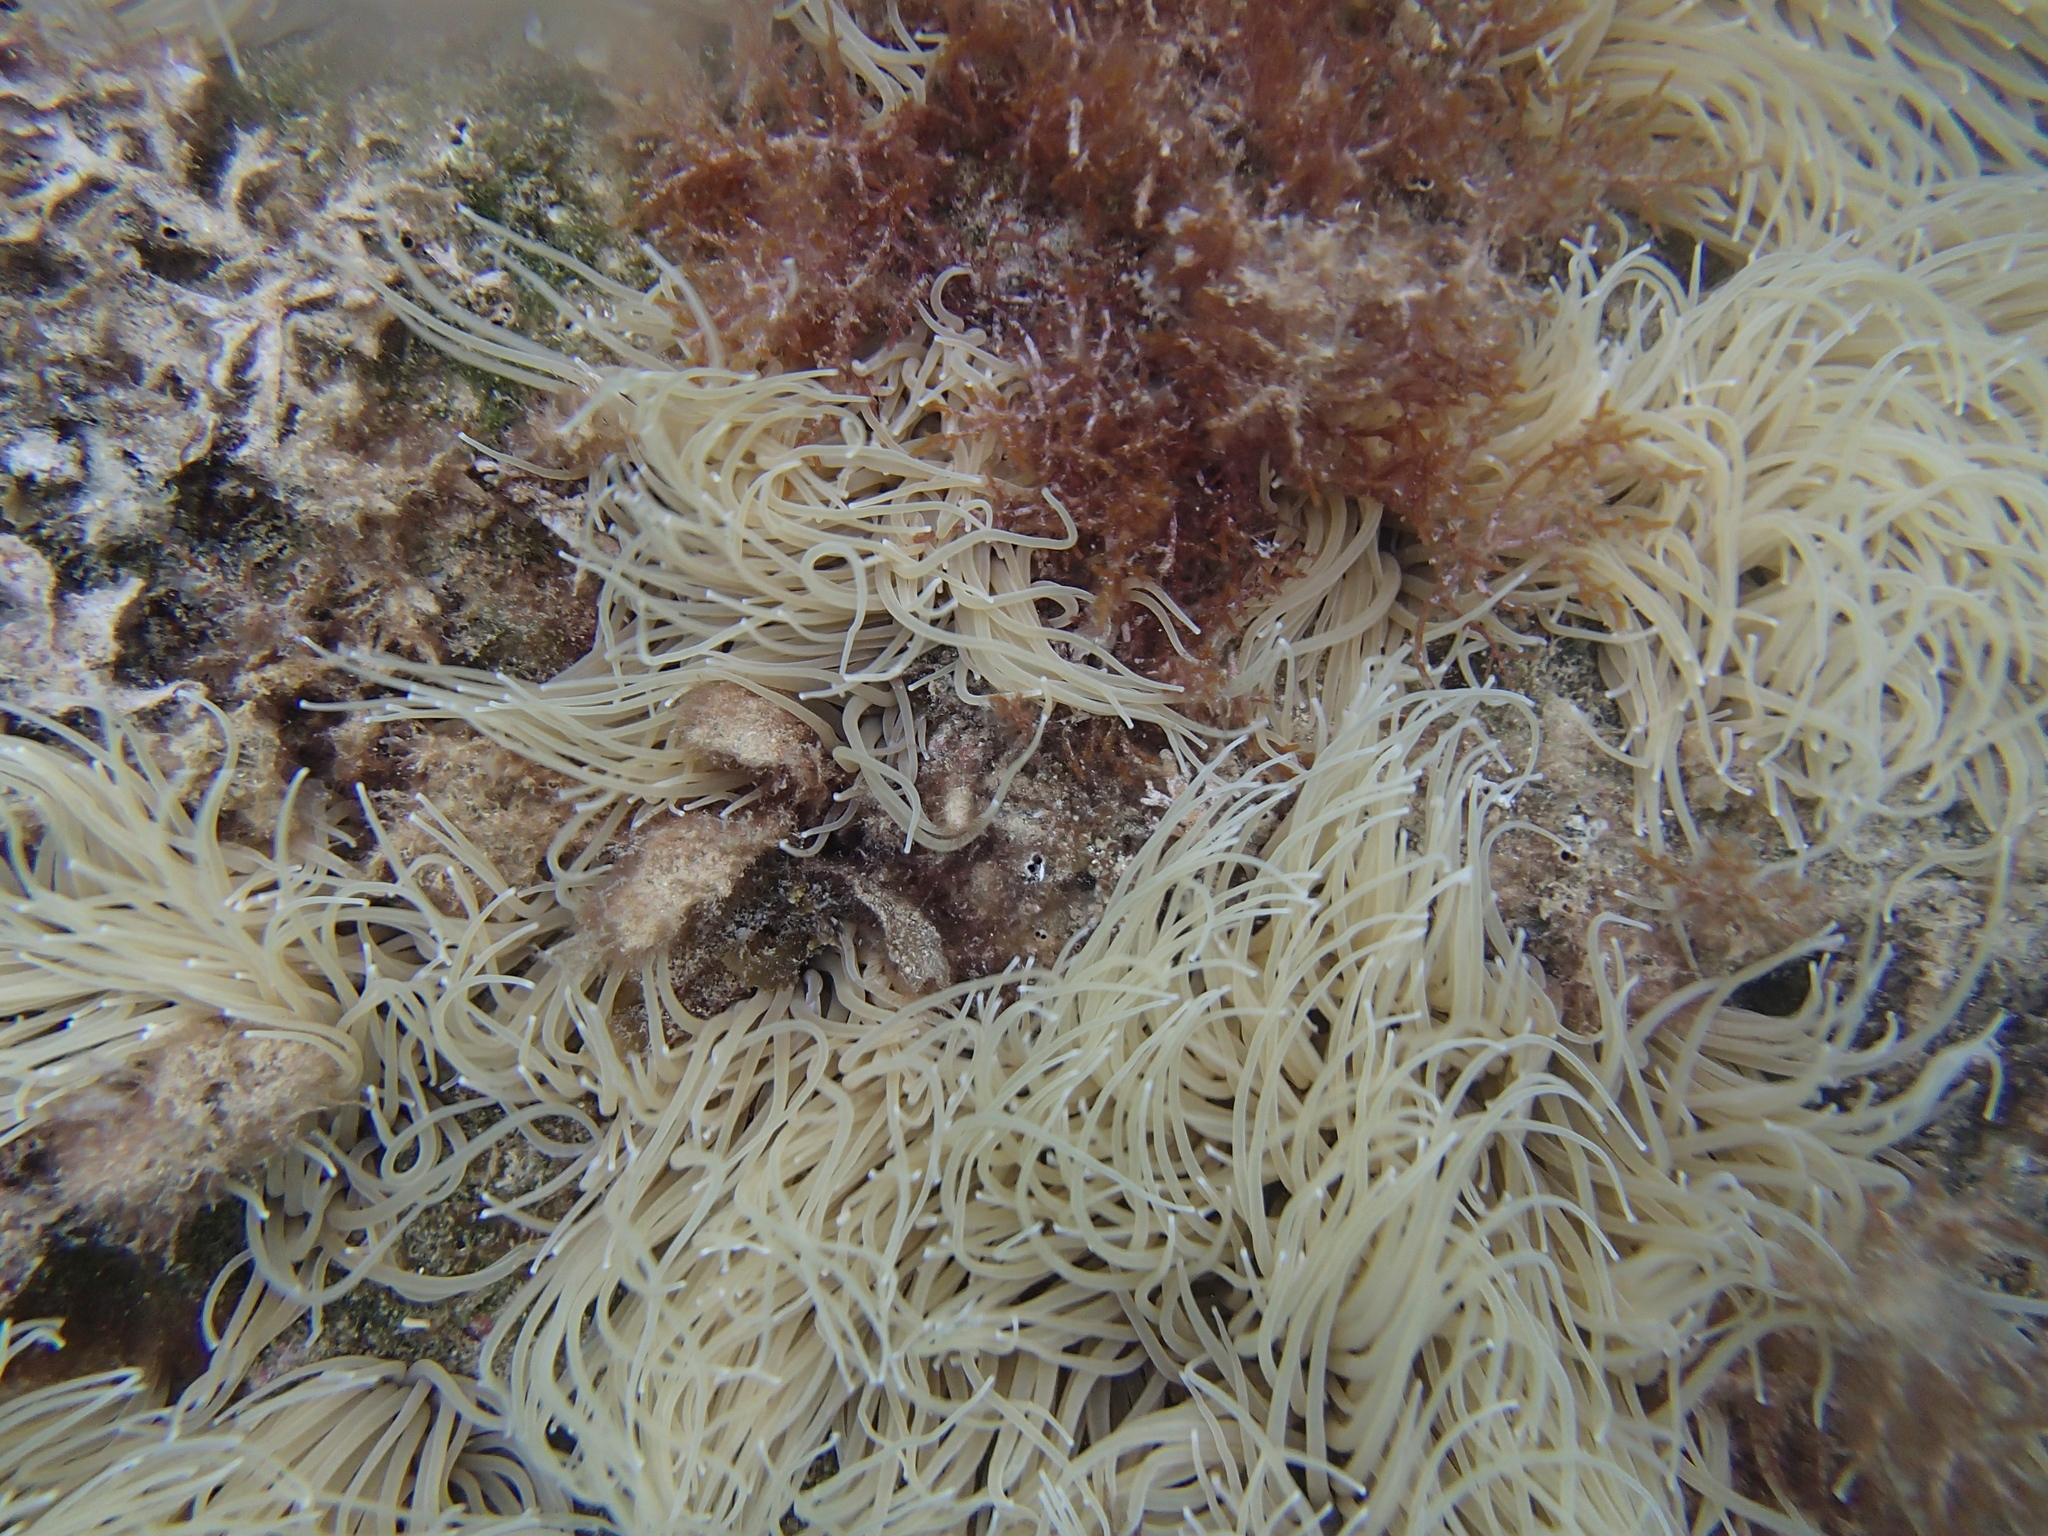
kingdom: Animalia
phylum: Cnidaria
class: Anthozoa
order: Actiniaria
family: Actiniidae
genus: Anemonia
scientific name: Anemonia viridis
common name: Snakelocks anemone
